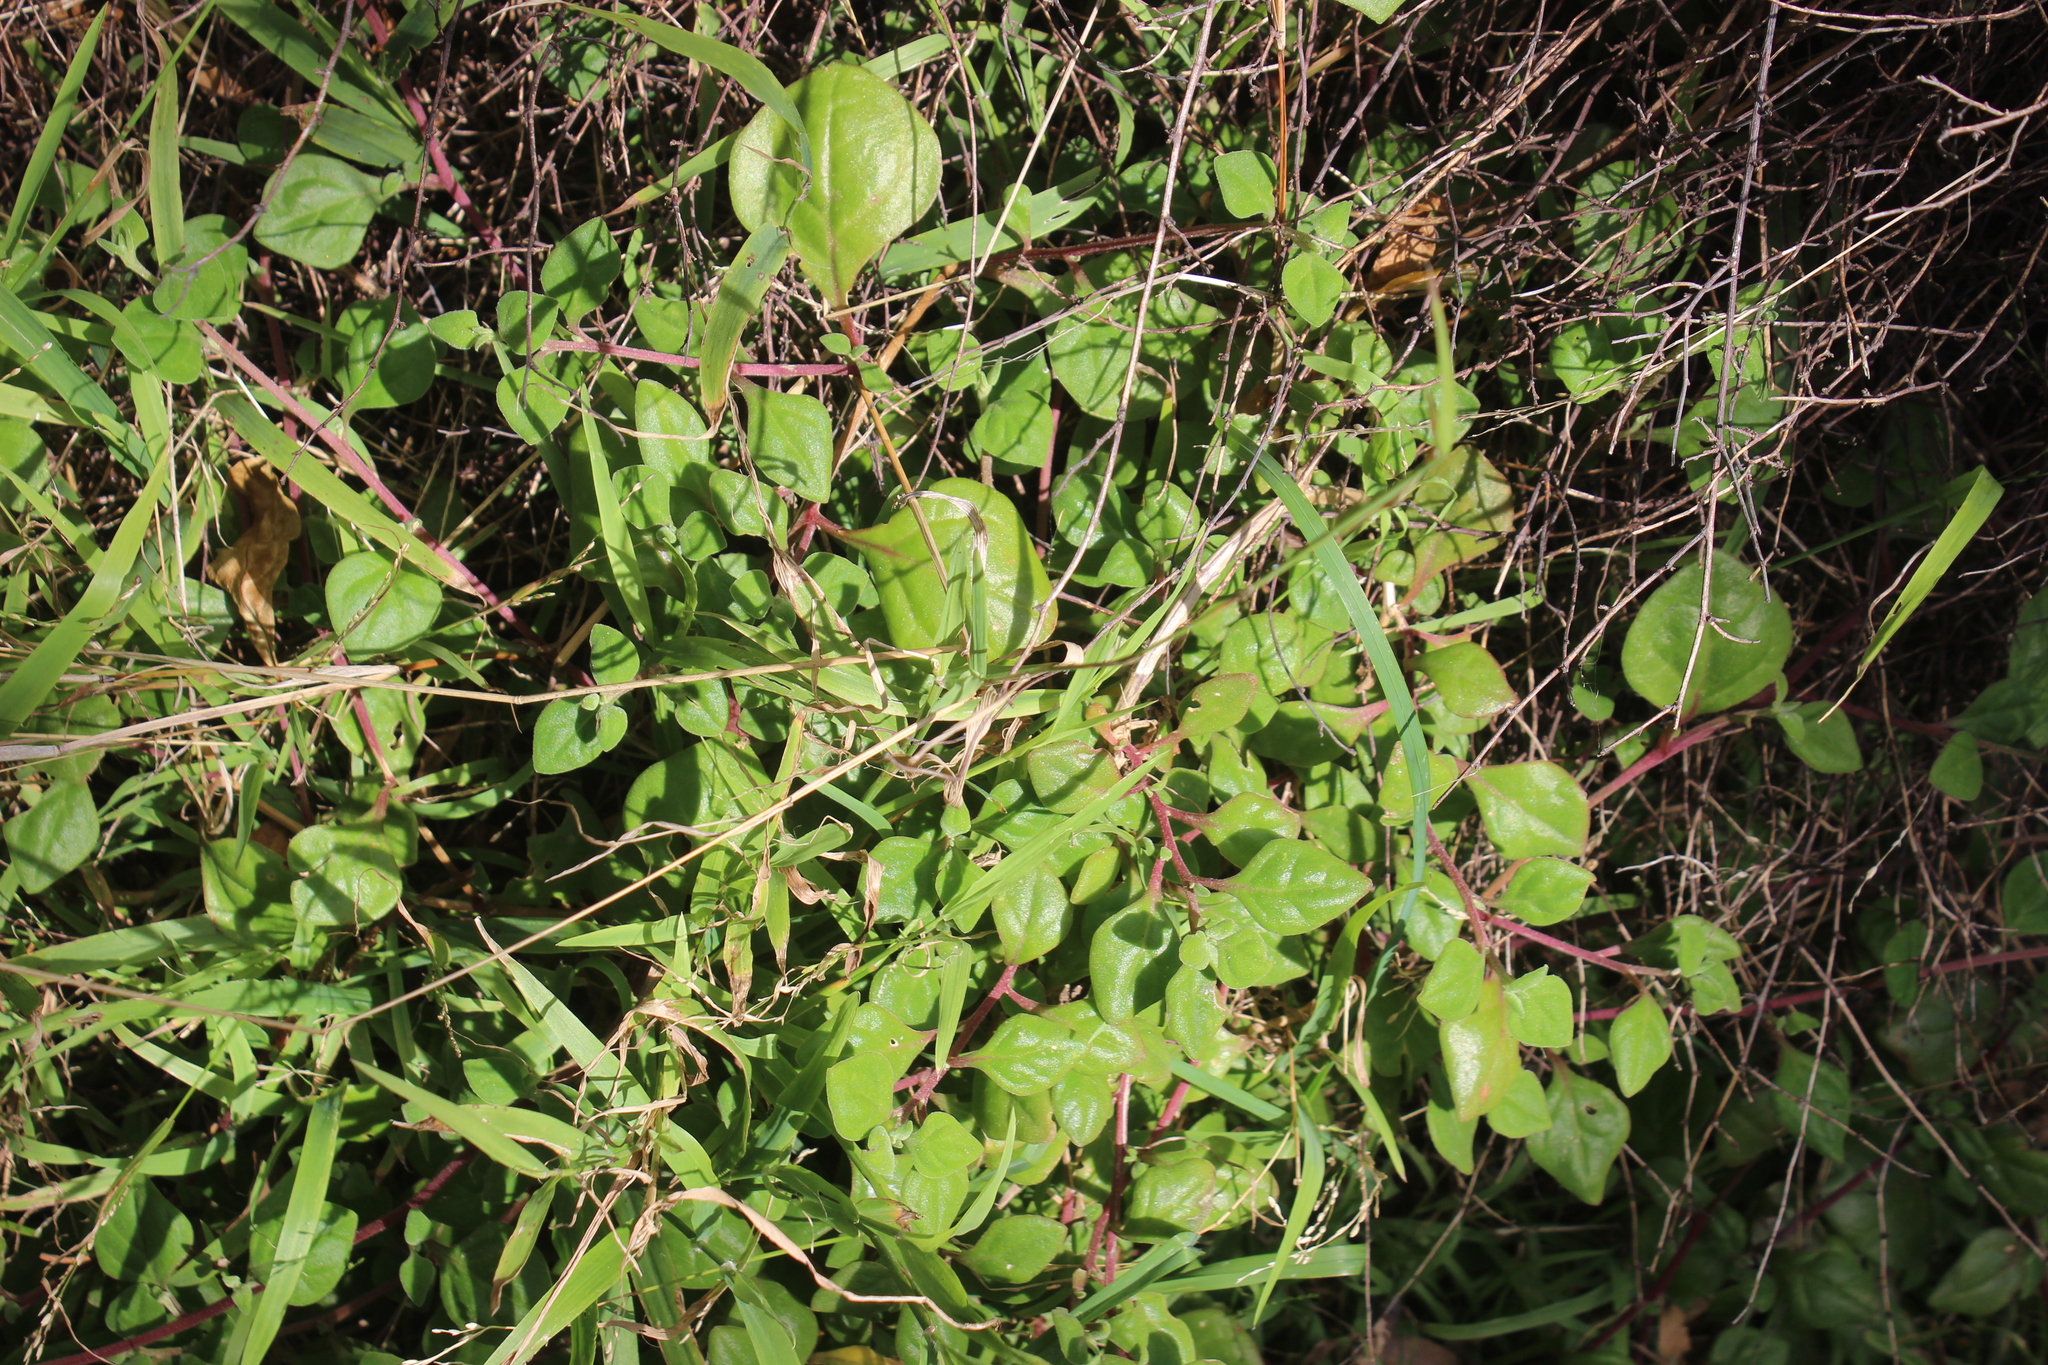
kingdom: Plantae
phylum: Tracheophyta
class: Magnoliopsida
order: Caryophyllales
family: Aizoaceae
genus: Tetragonia
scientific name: Tetragonia implexicoma
